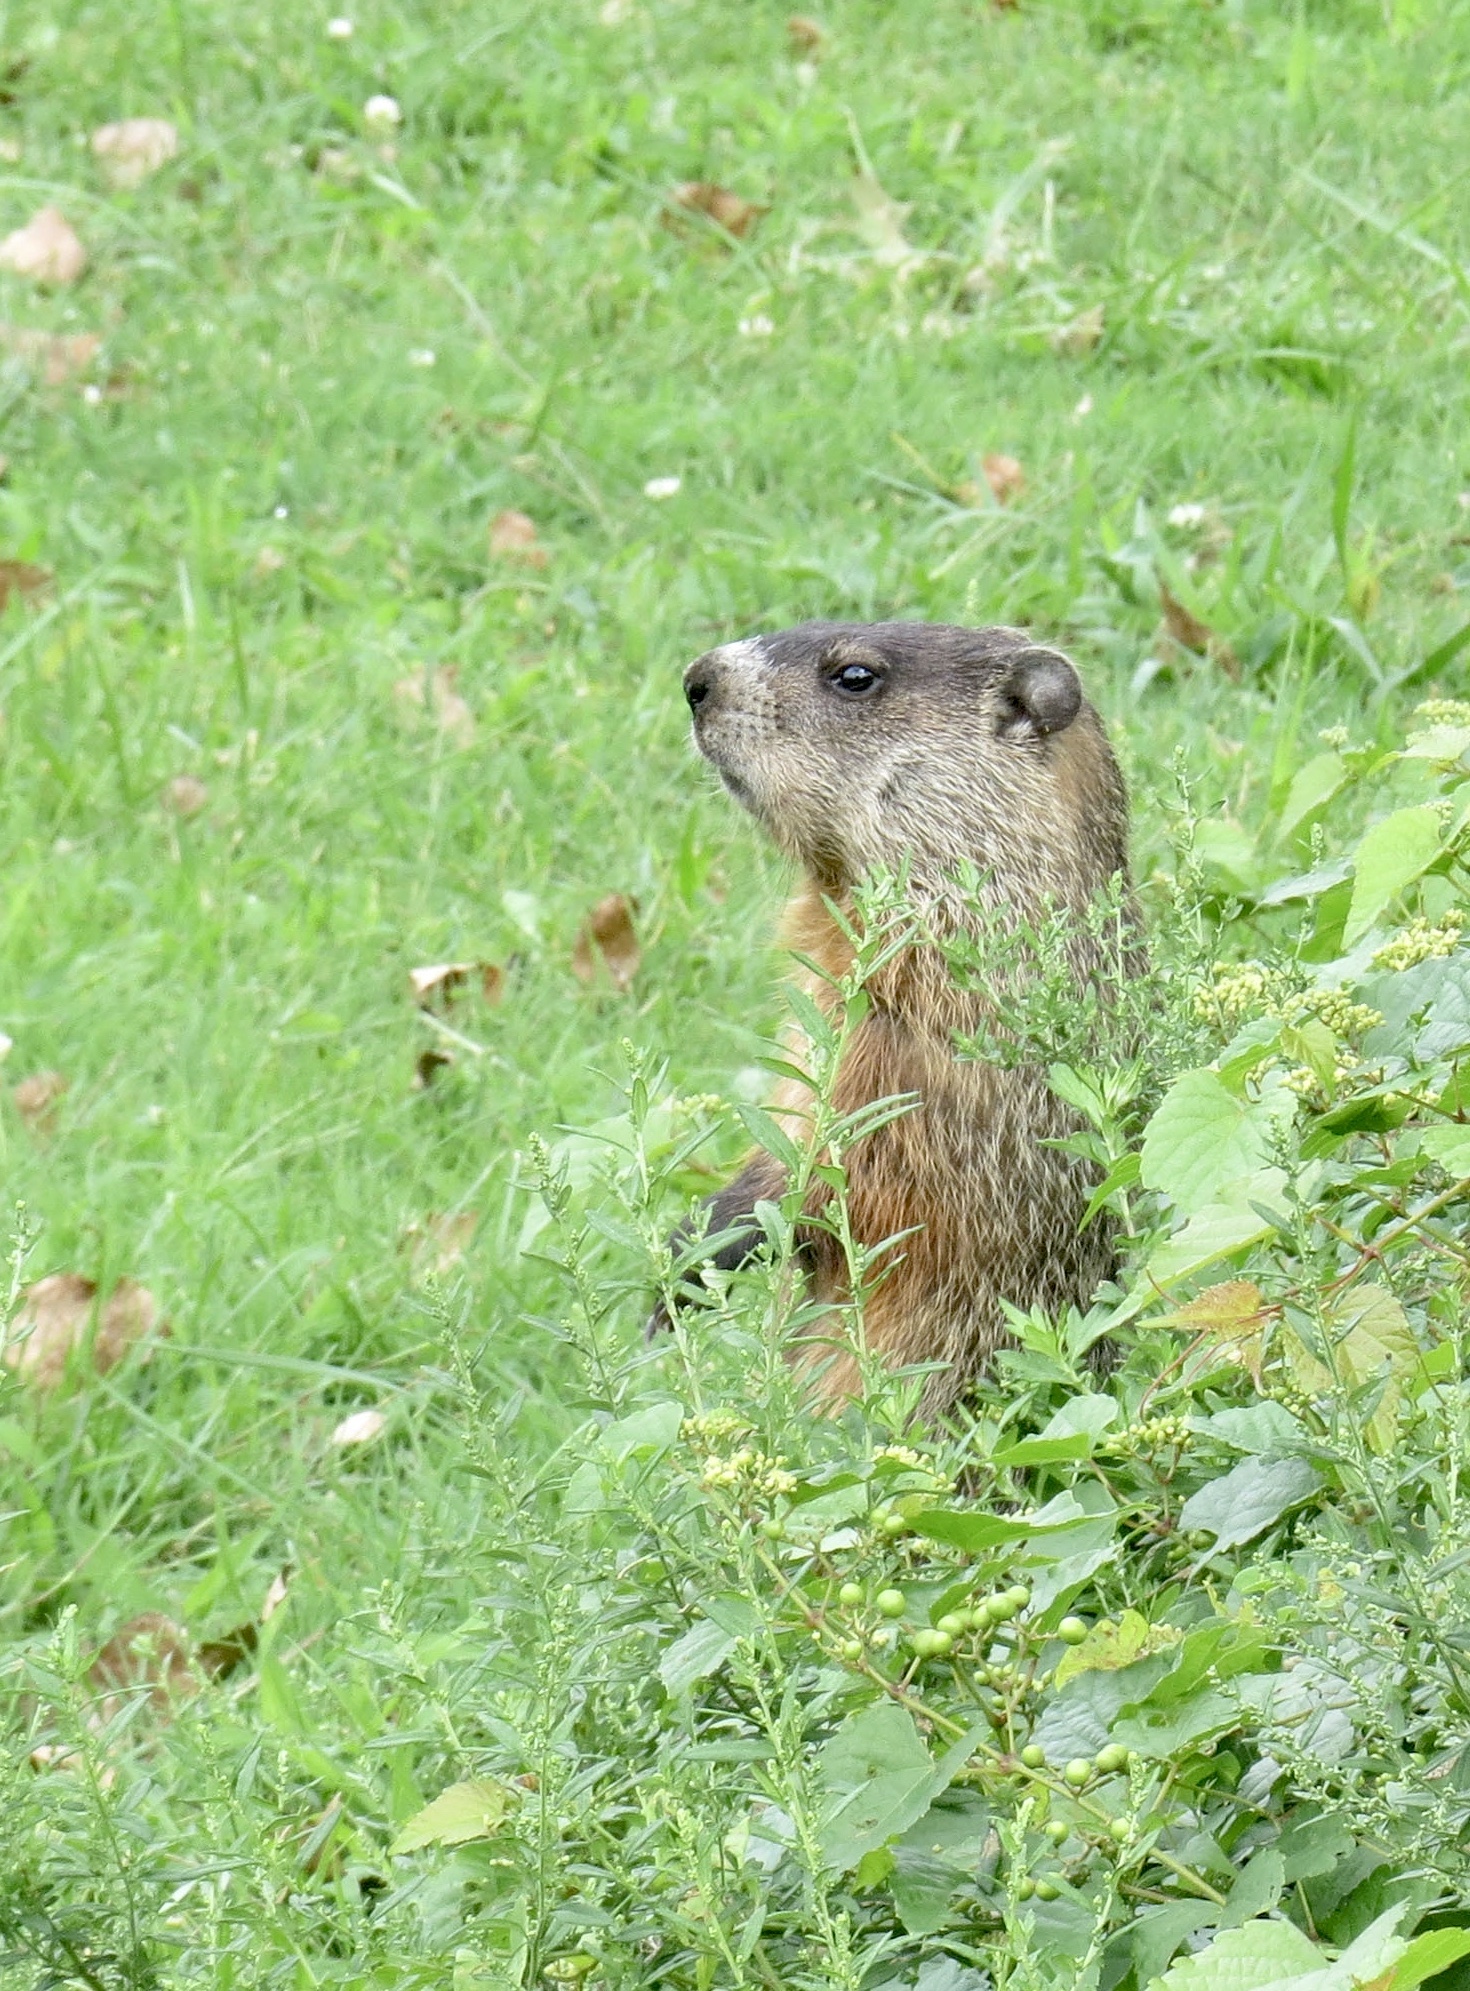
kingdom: Animalia
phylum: Chordata
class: Mammalia
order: Rodentia
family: Sciuridae
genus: Marmota
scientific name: Marmota monax
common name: Groundhog
